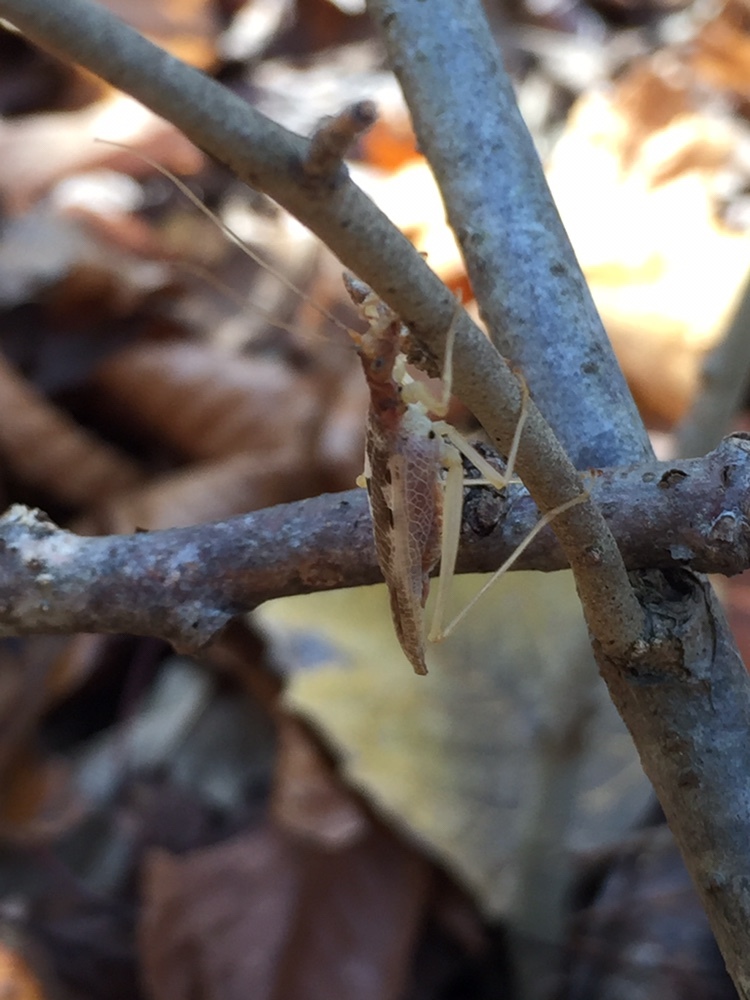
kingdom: Animalia
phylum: Arthropoda
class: Insecta
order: Orthoptera
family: Gryllidae
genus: Neoxabea
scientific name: Neoxabea bipunctata
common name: Two-spotted tree cricket
